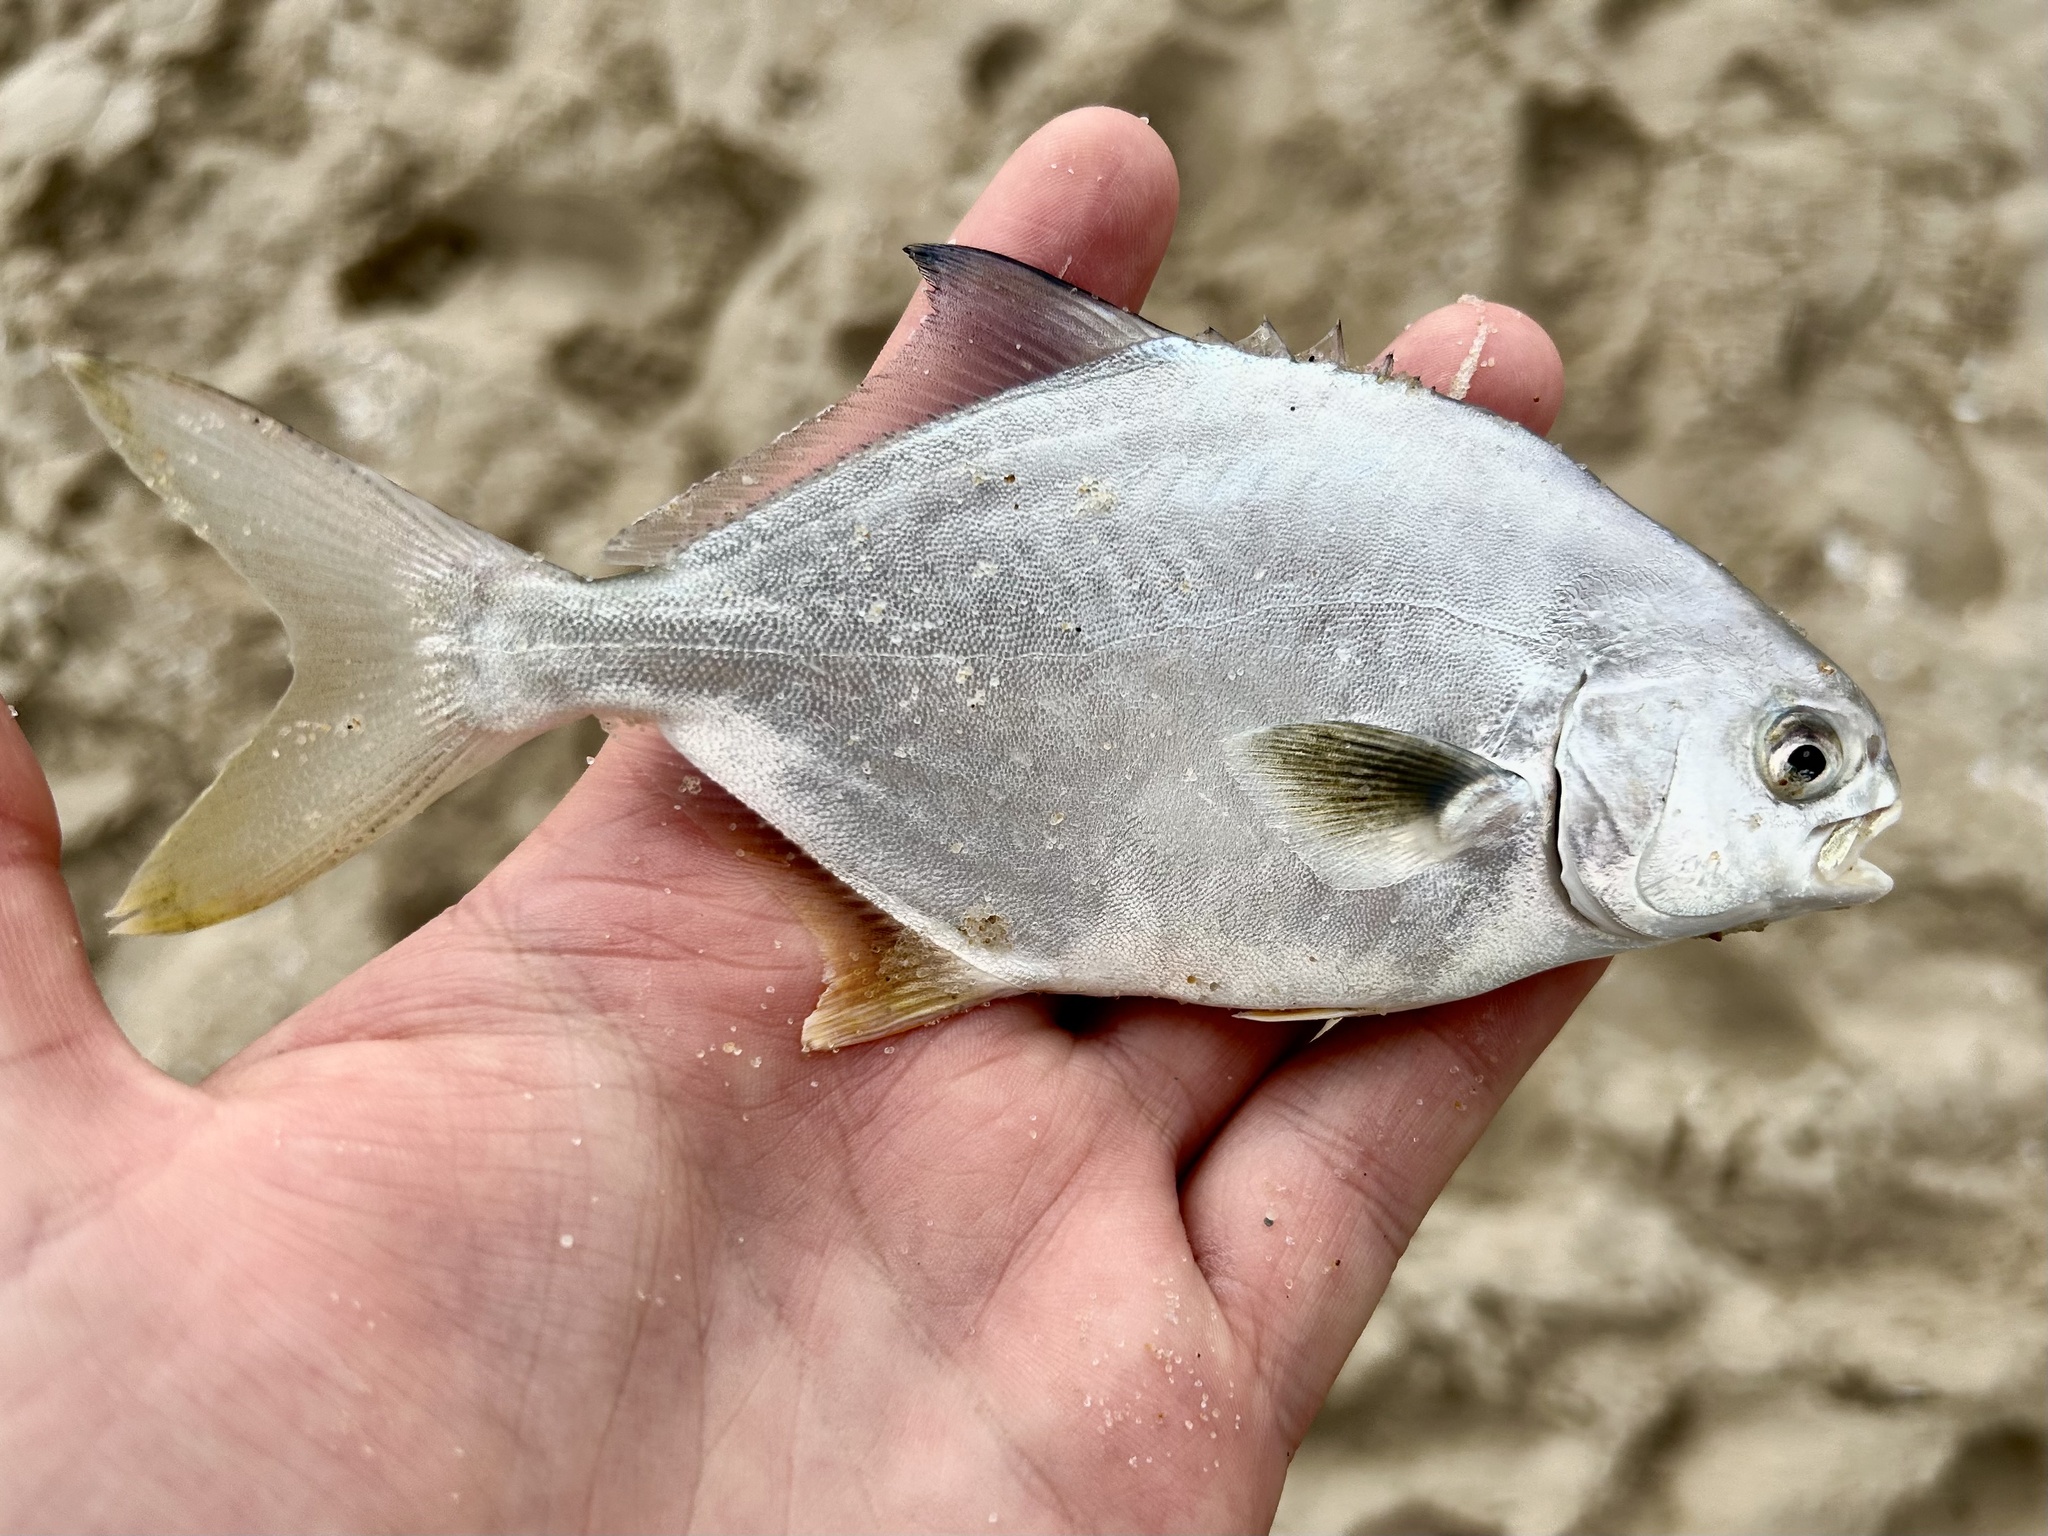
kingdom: Animalia
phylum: Chordata
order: Perciformes
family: Carangidae
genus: Trachinotus
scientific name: Trachinotus carolinus
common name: Florida pompano
